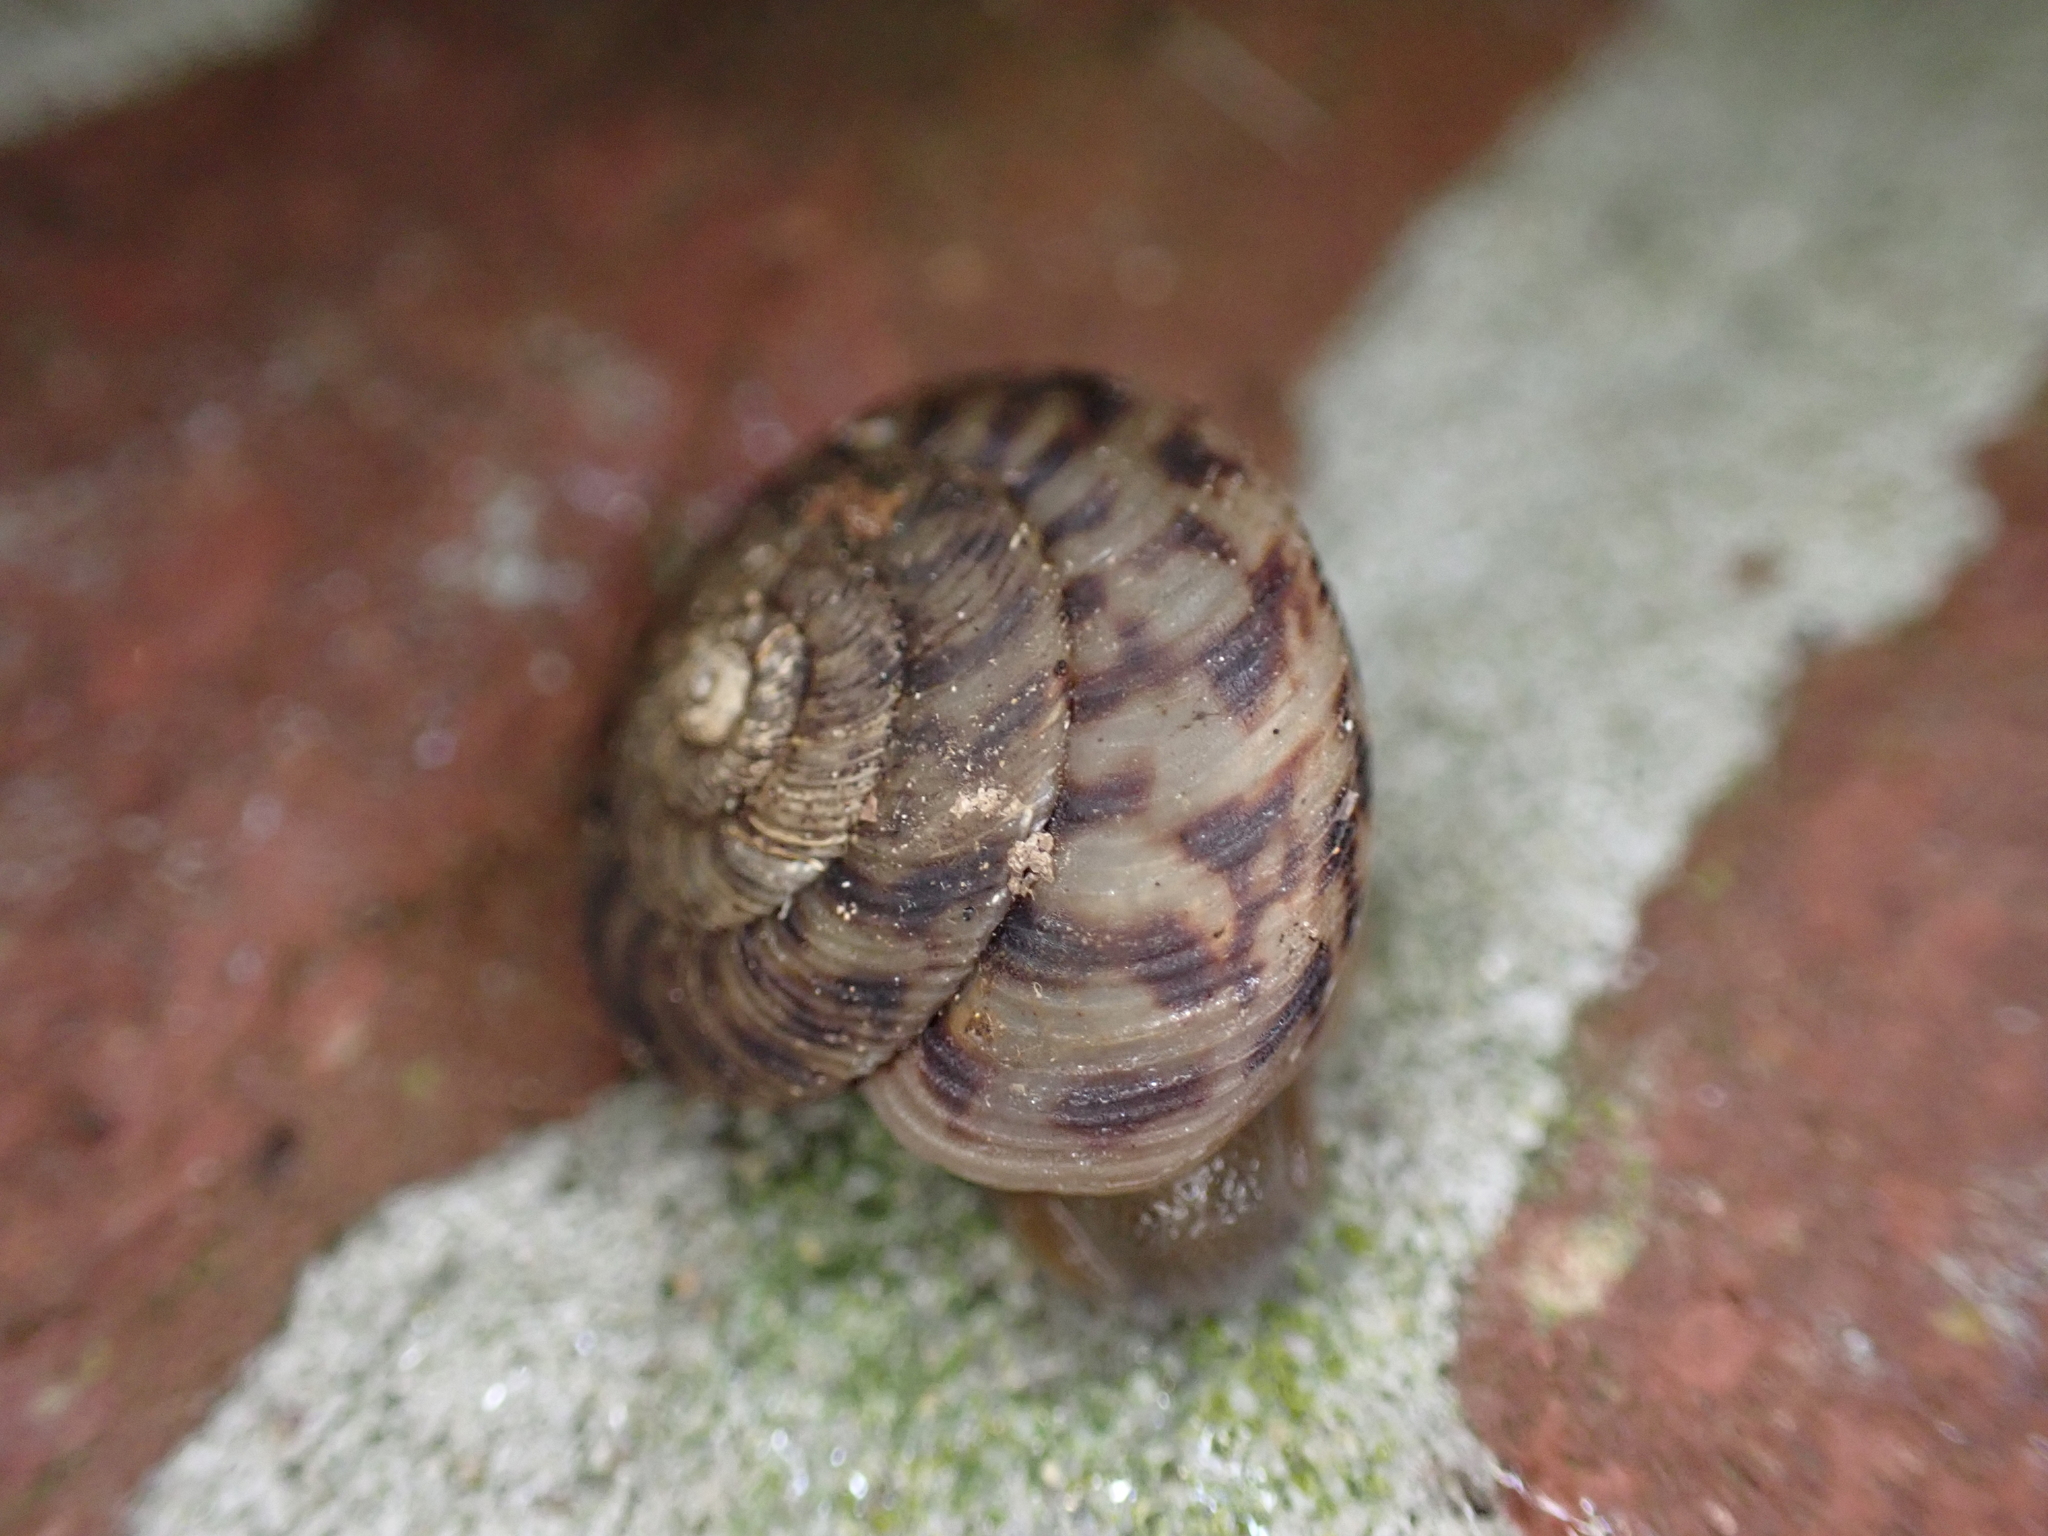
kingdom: Animalia
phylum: Mollusca
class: Gastropoda
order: Stylommatophora
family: Discidae
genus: Anguispira
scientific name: Anguispira alternata
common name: Flamed tigersnail
